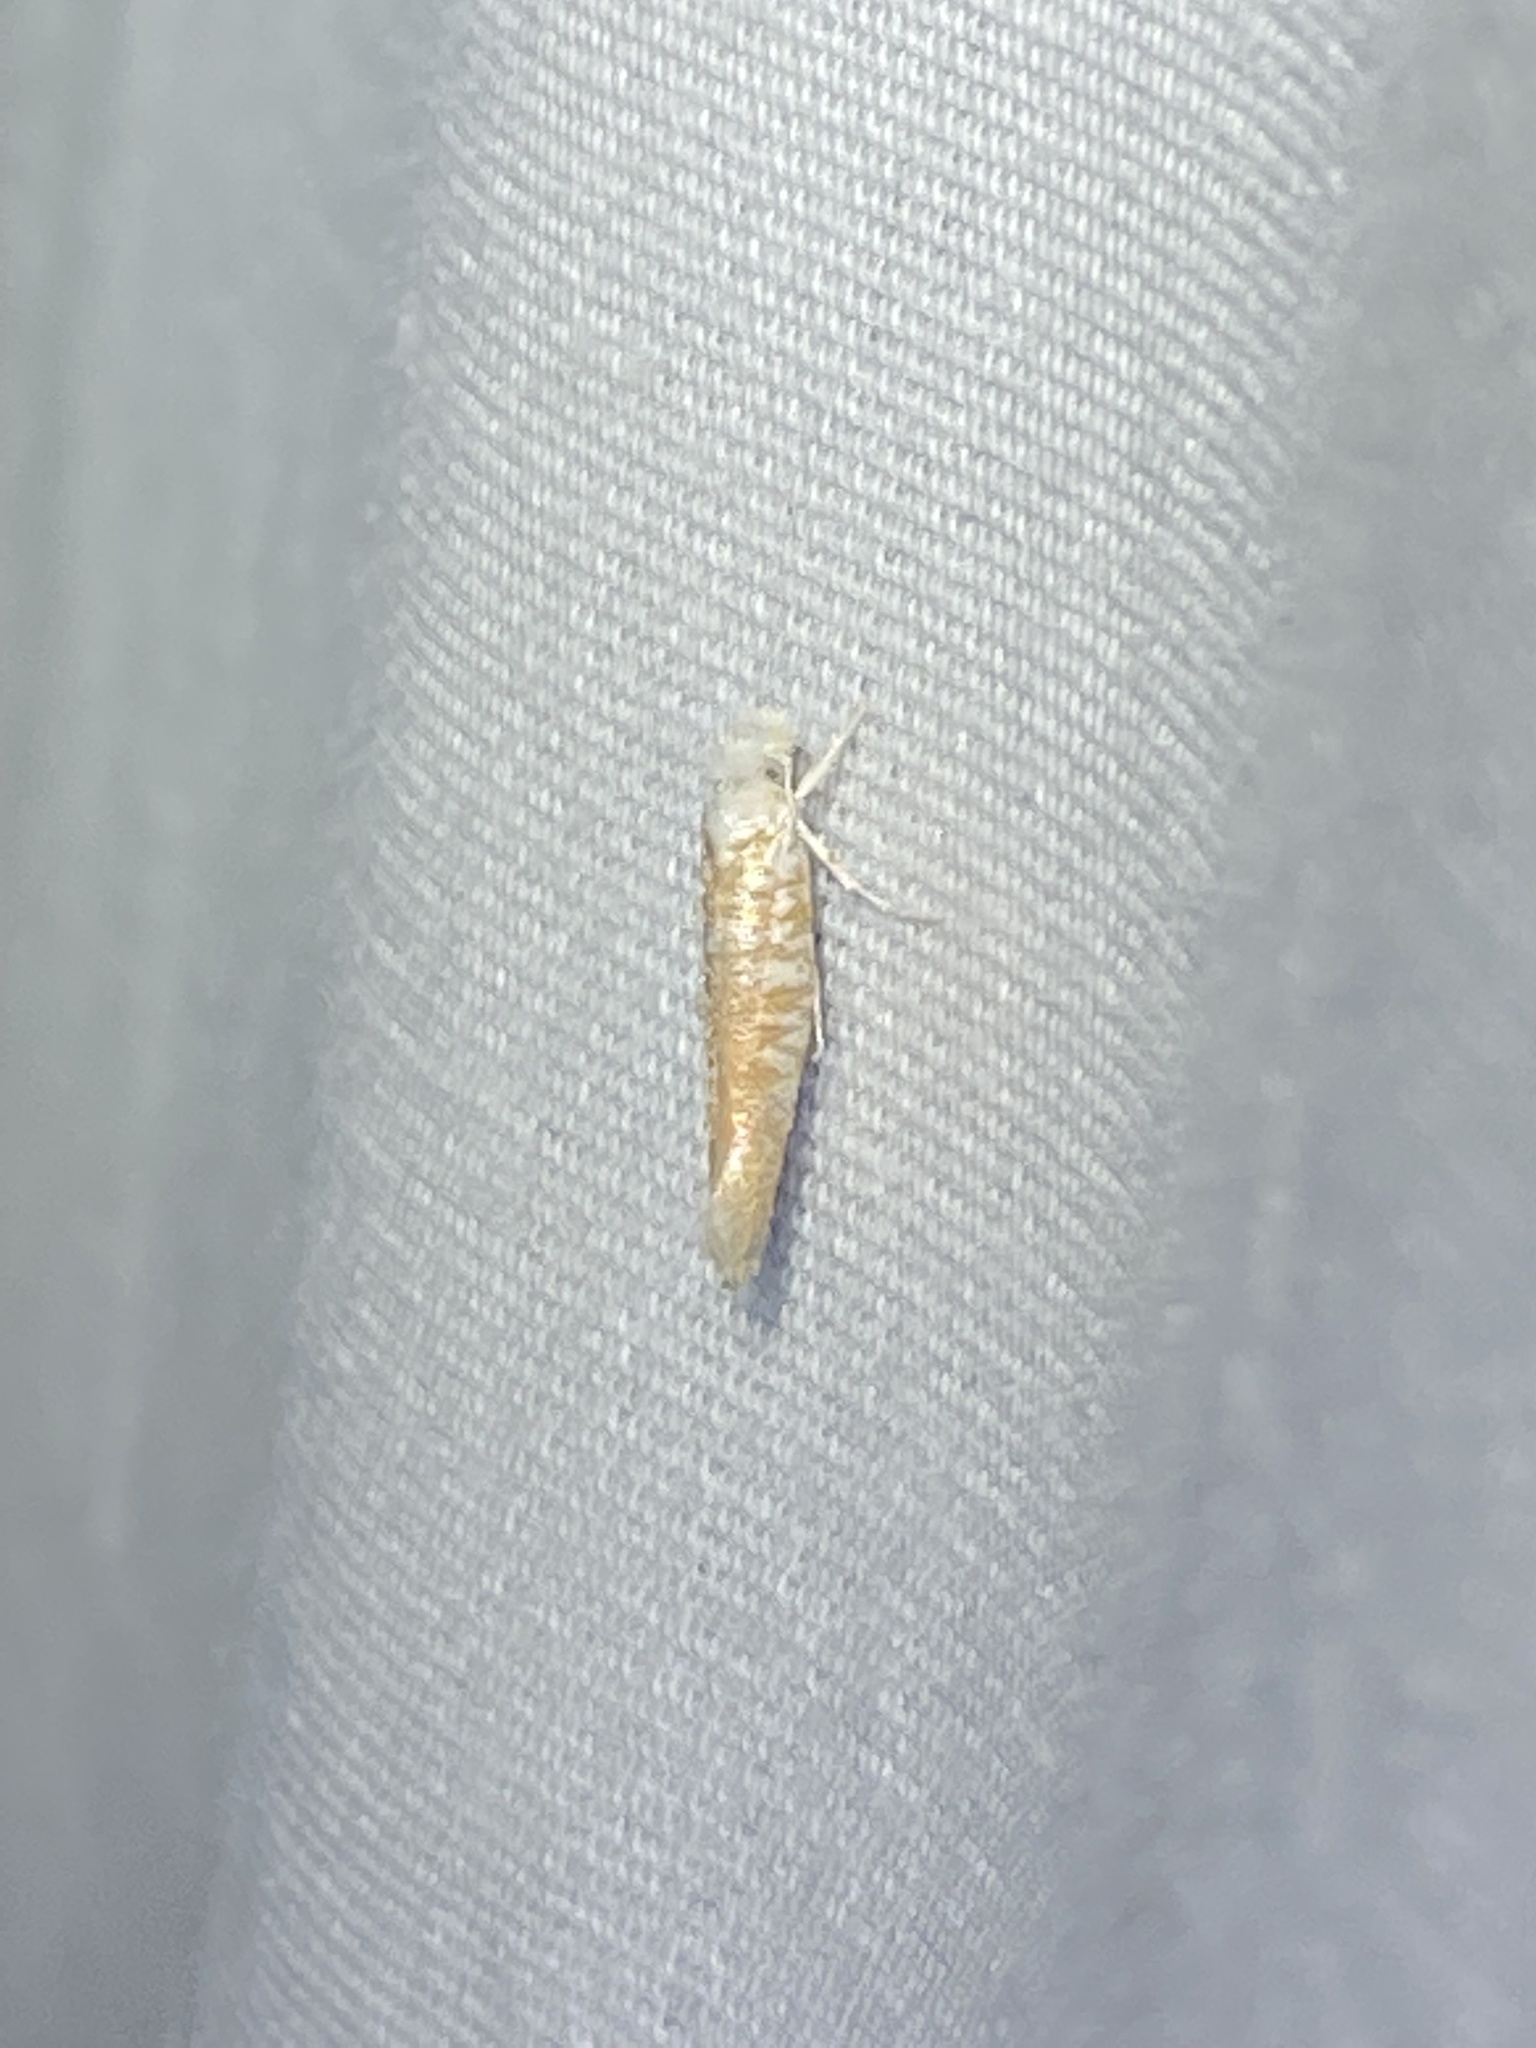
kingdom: Animalia
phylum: Arthropoda
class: Insecta
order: Lepidoptera
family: Yponomeutidae
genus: Zelleria
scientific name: Zelleria retiniella
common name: Brindled zelleria
